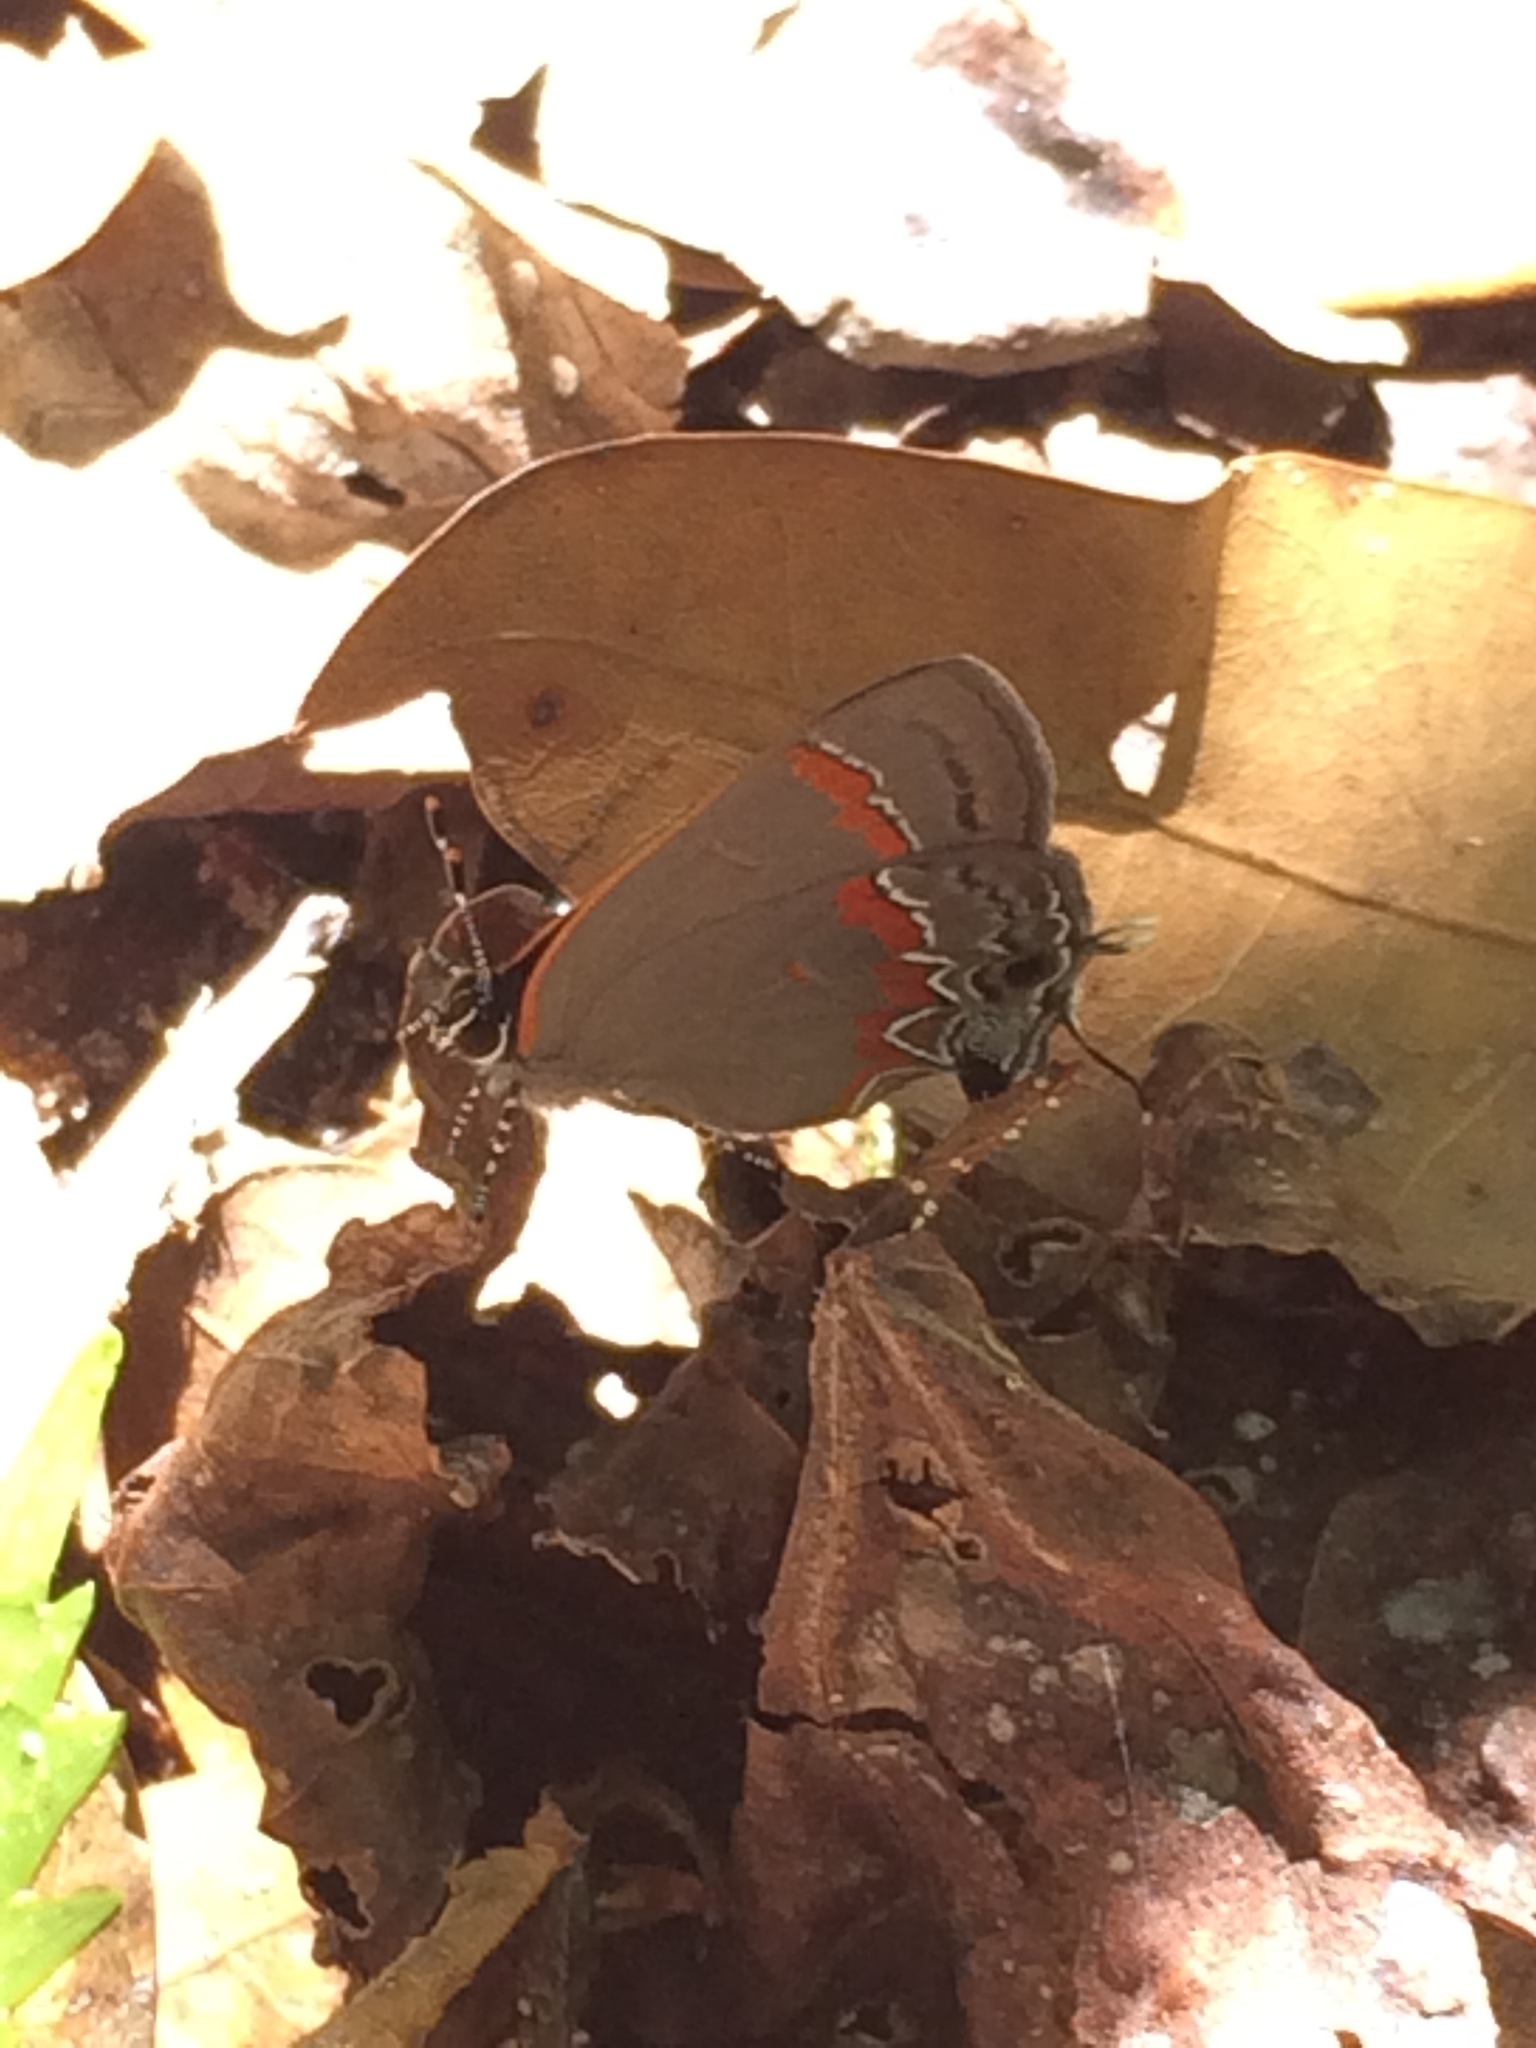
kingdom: Animalia
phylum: Arthropoda
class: Insecta
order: Lepidoptera
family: Lycaenidae
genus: Calycopis
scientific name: Calycopis cecrops
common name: Red-banded hairstreak
